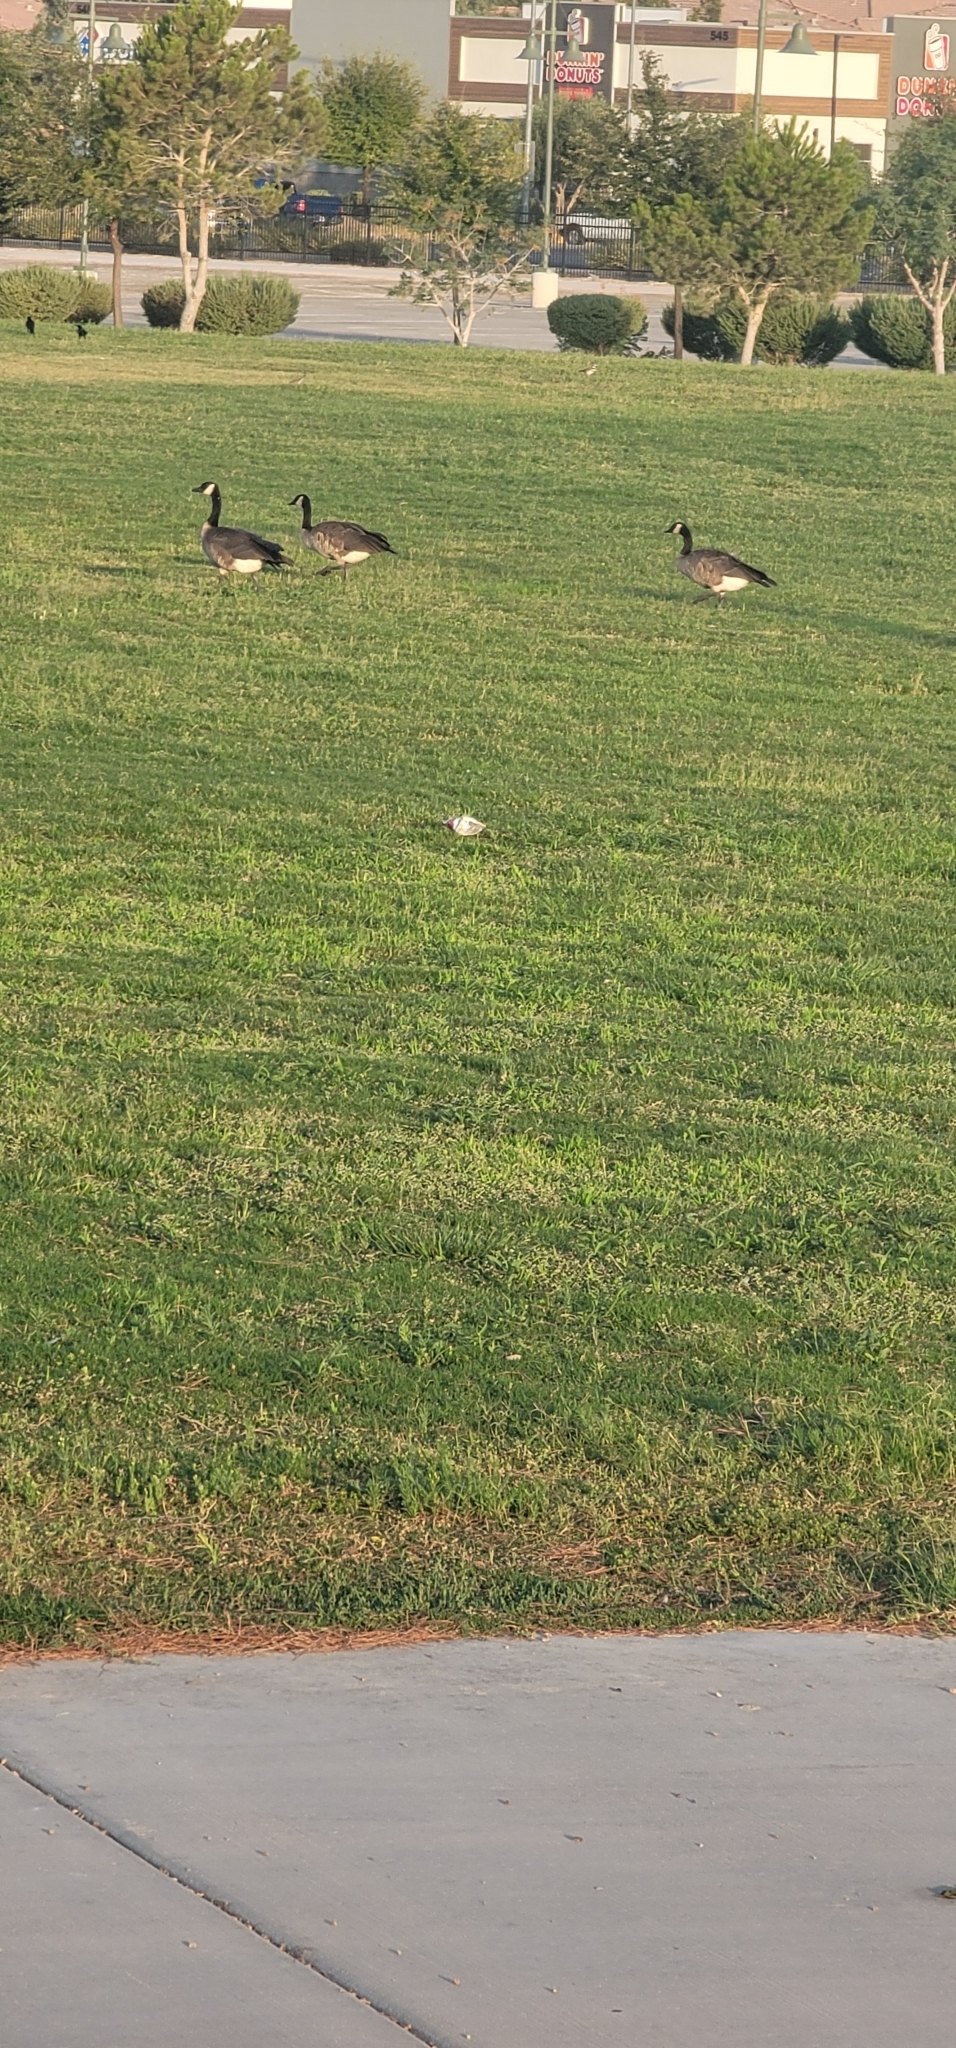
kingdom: Animalia
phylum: Chordata
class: Aves
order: Anseriformes
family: Anatidae
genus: Branta
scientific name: Branta canadensis
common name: Canada goose
